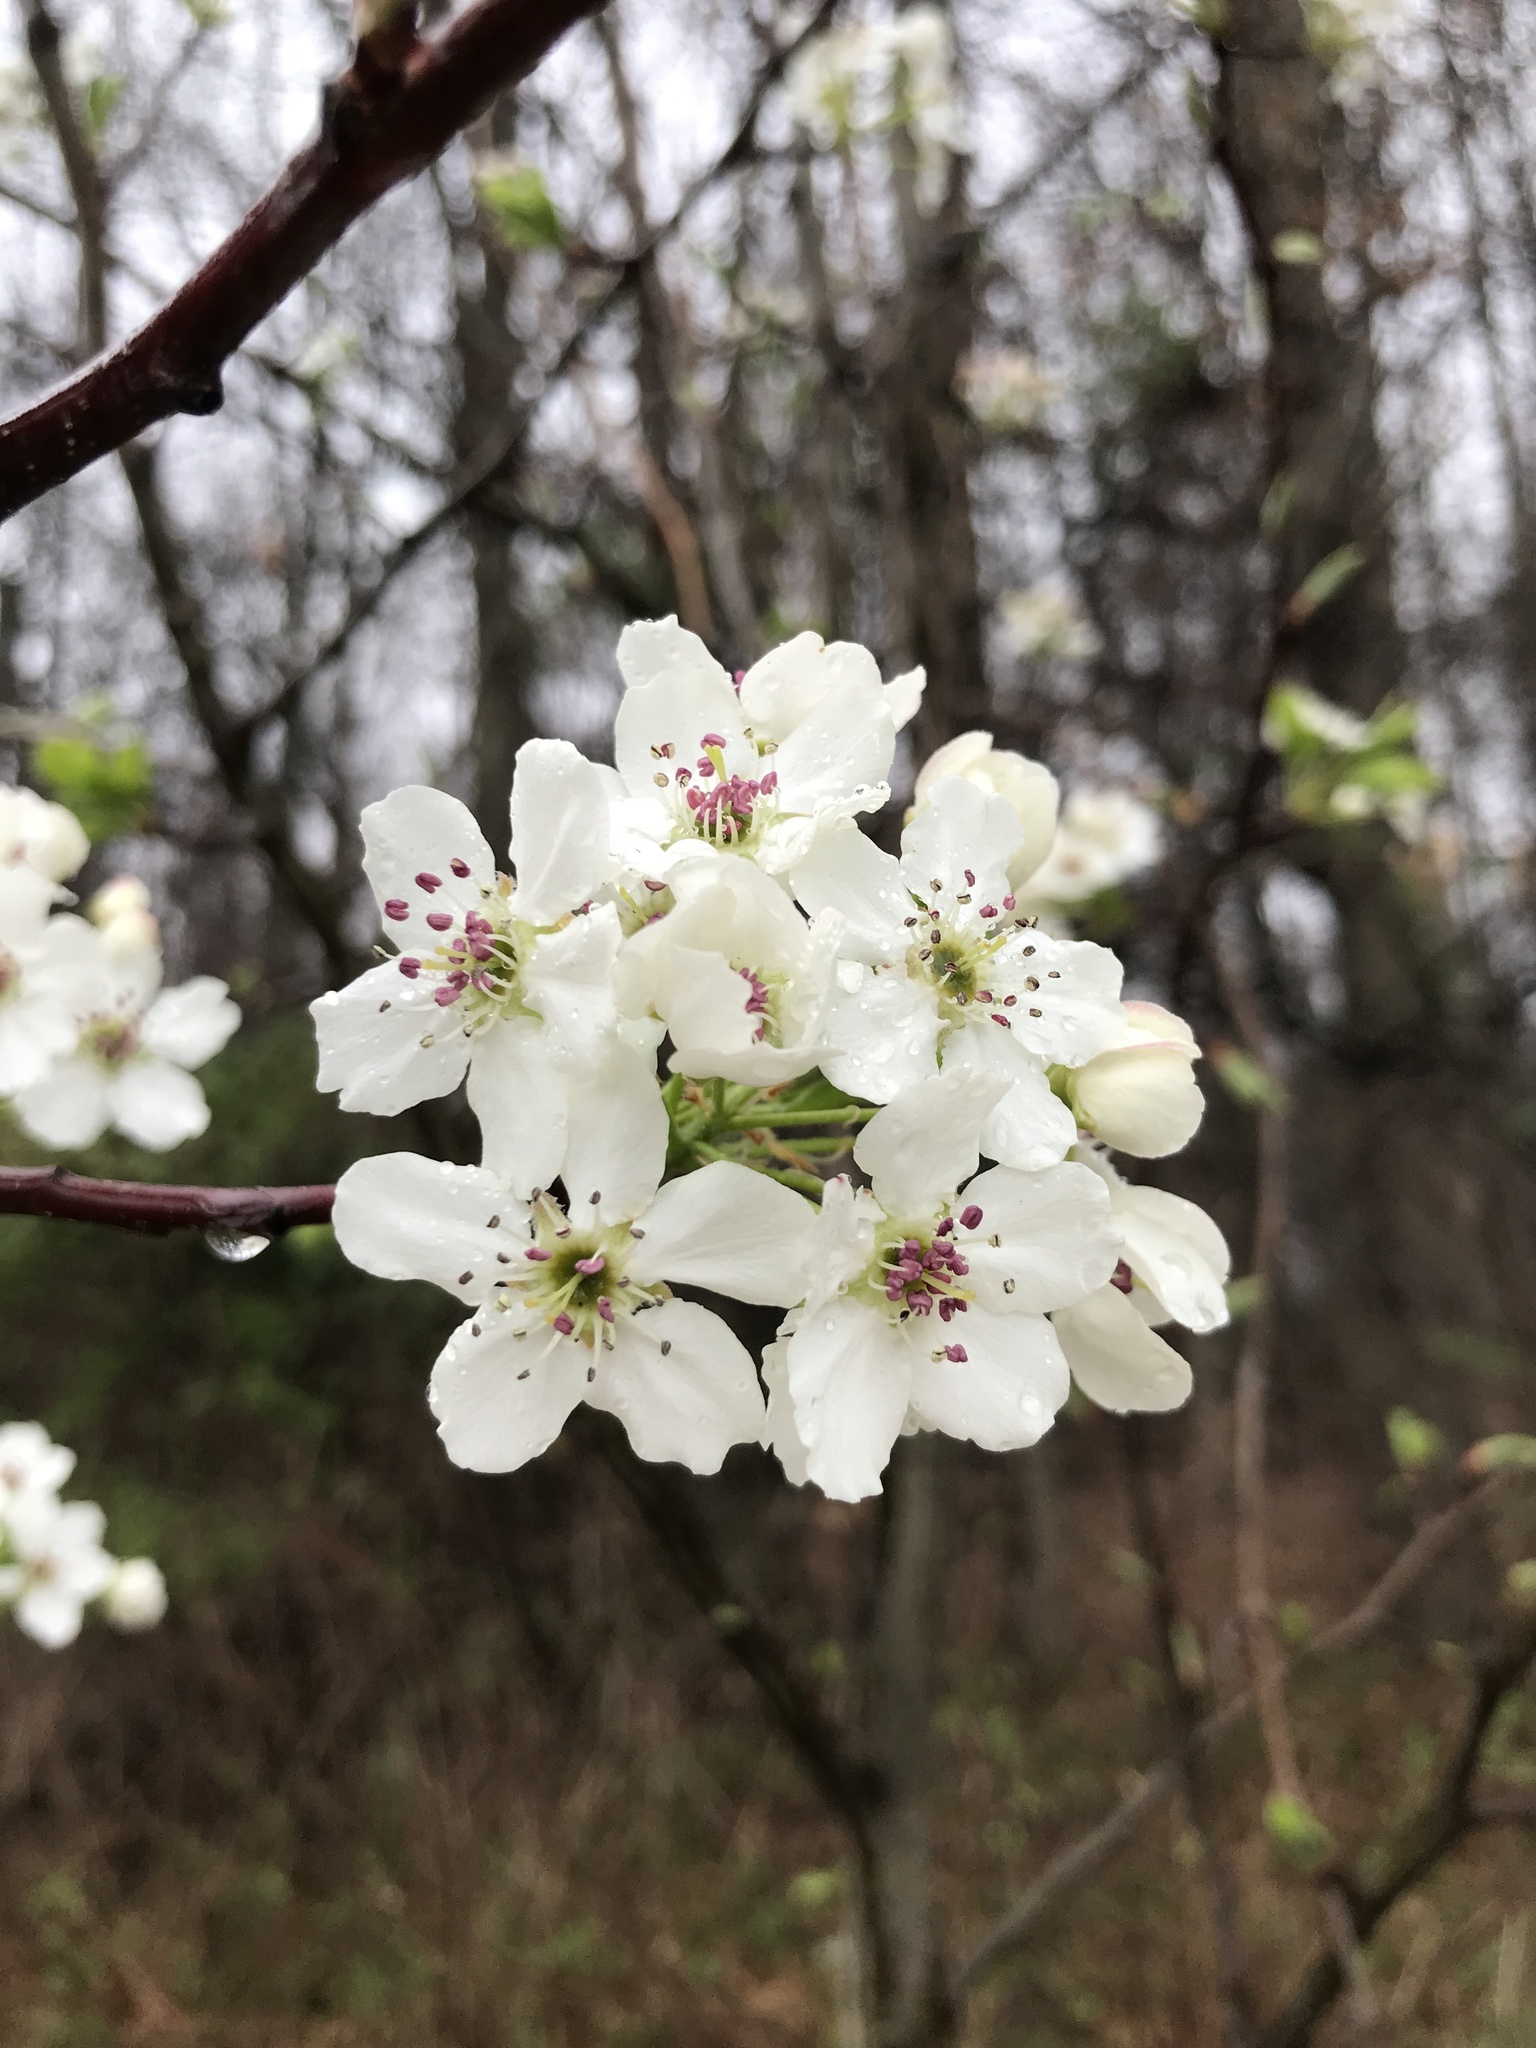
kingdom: Plantae
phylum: Tracheophyta
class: Magnoliopsida
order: Rosales
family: Rosaceae
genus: Pyrus
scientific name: Pyrus calleryana
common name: Callery pear
